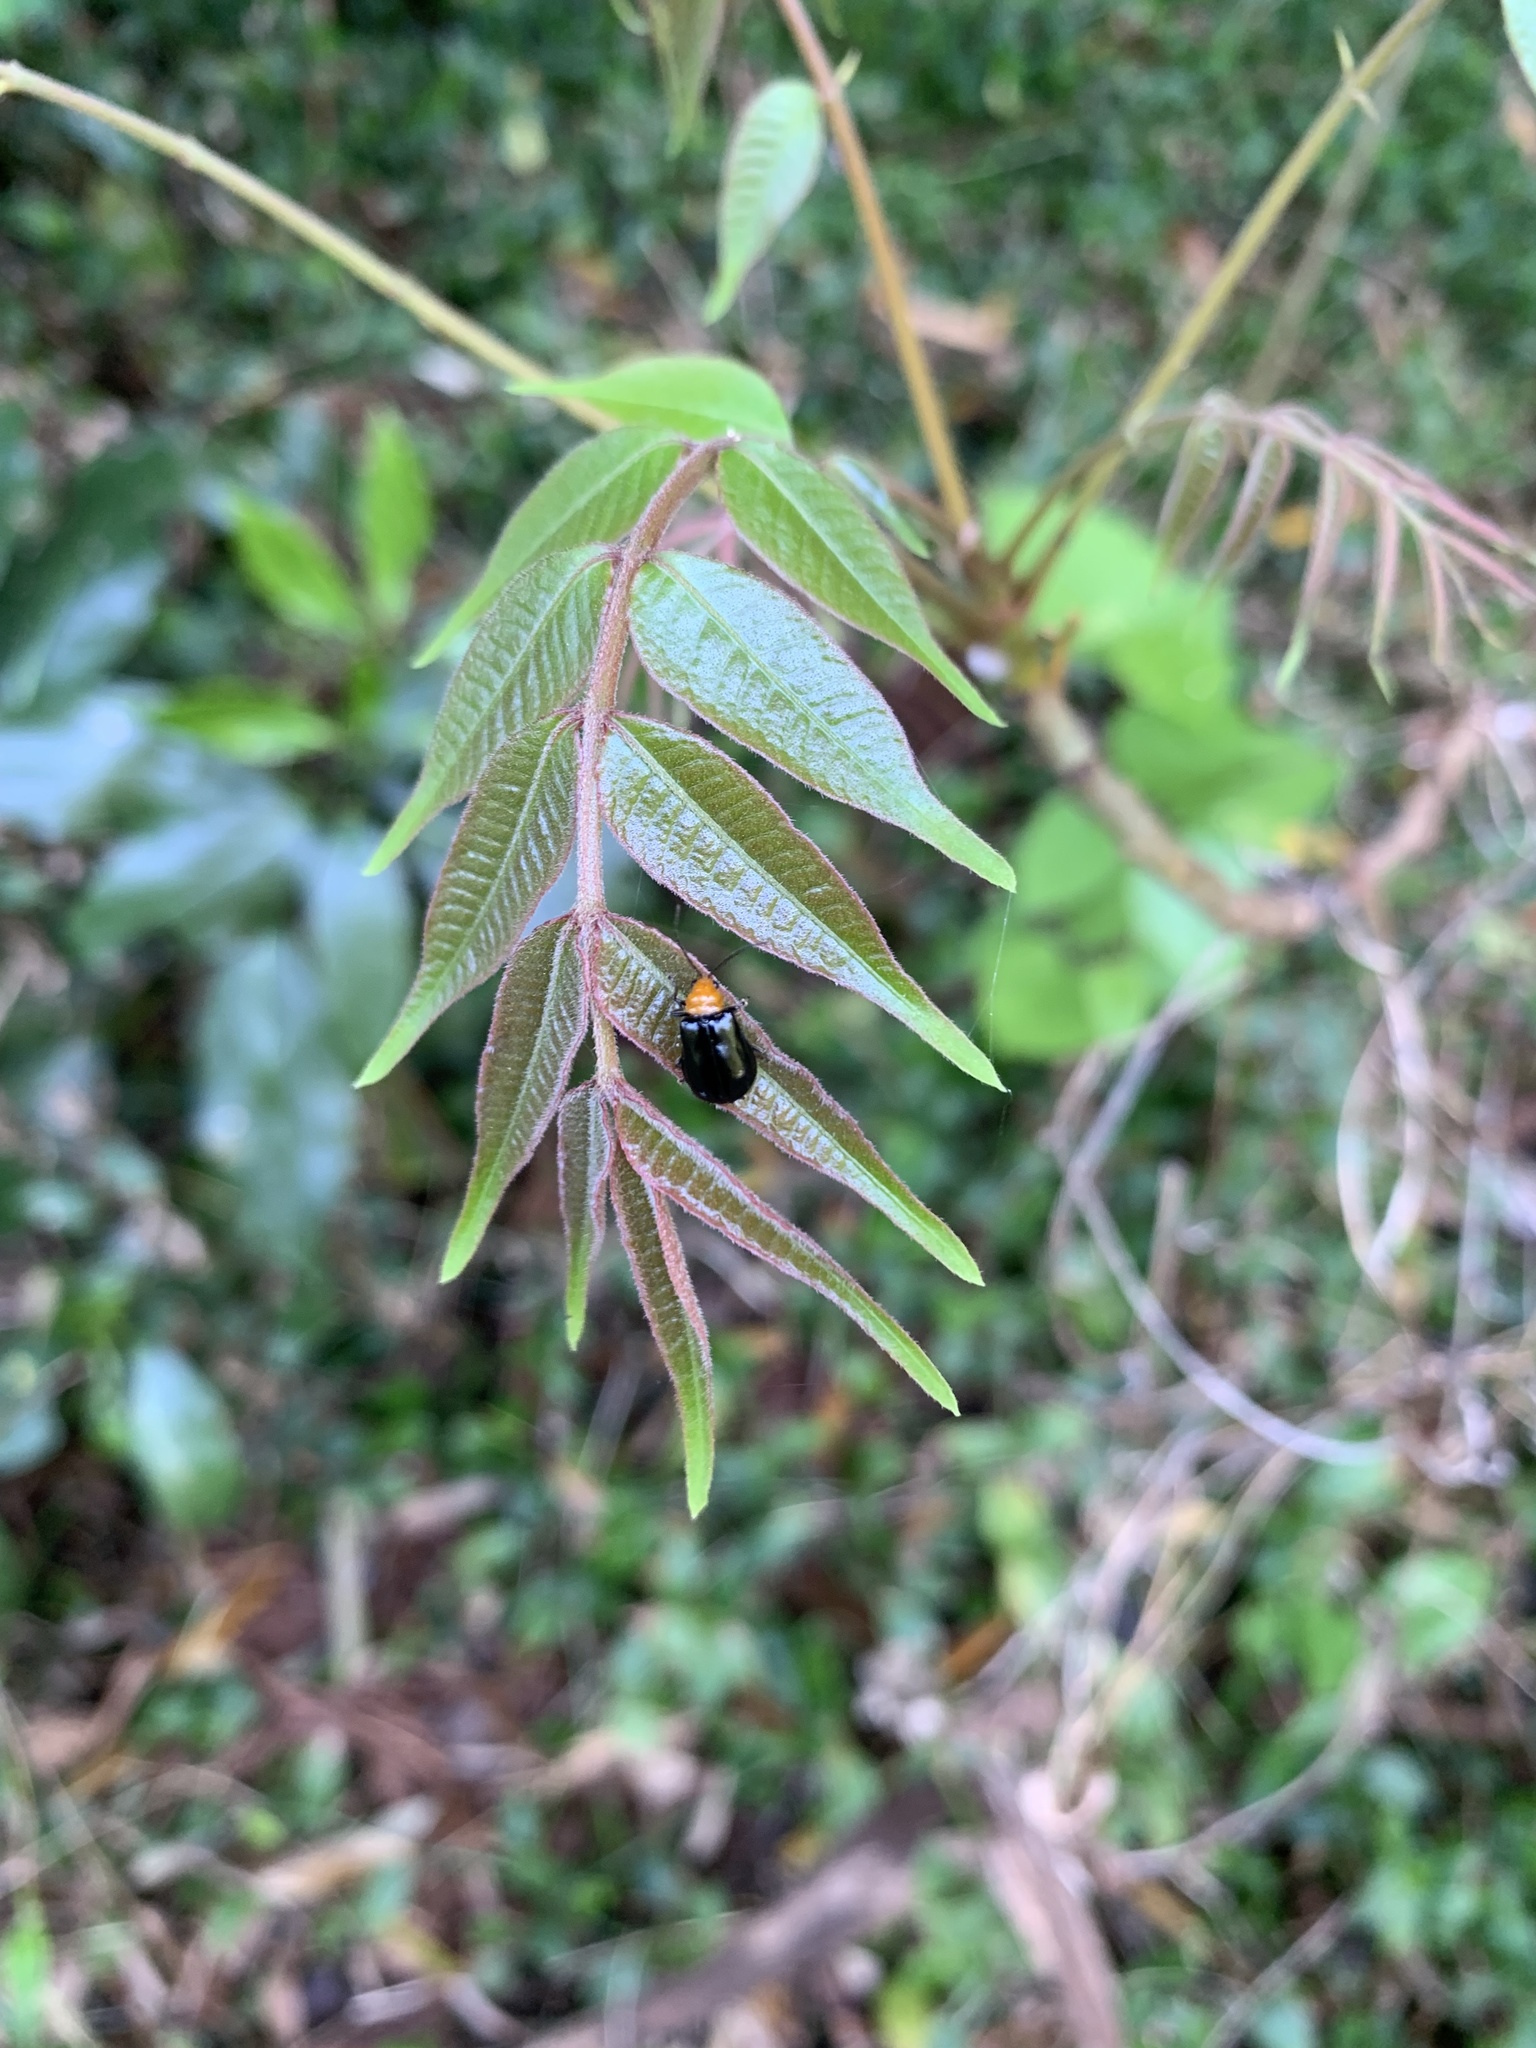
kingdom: Animalia
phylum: Arthropoda
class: Insecta
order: Coleoptera
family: Chrysomelidae
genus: Aulacophora
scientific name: Aulacophora nigripennis
